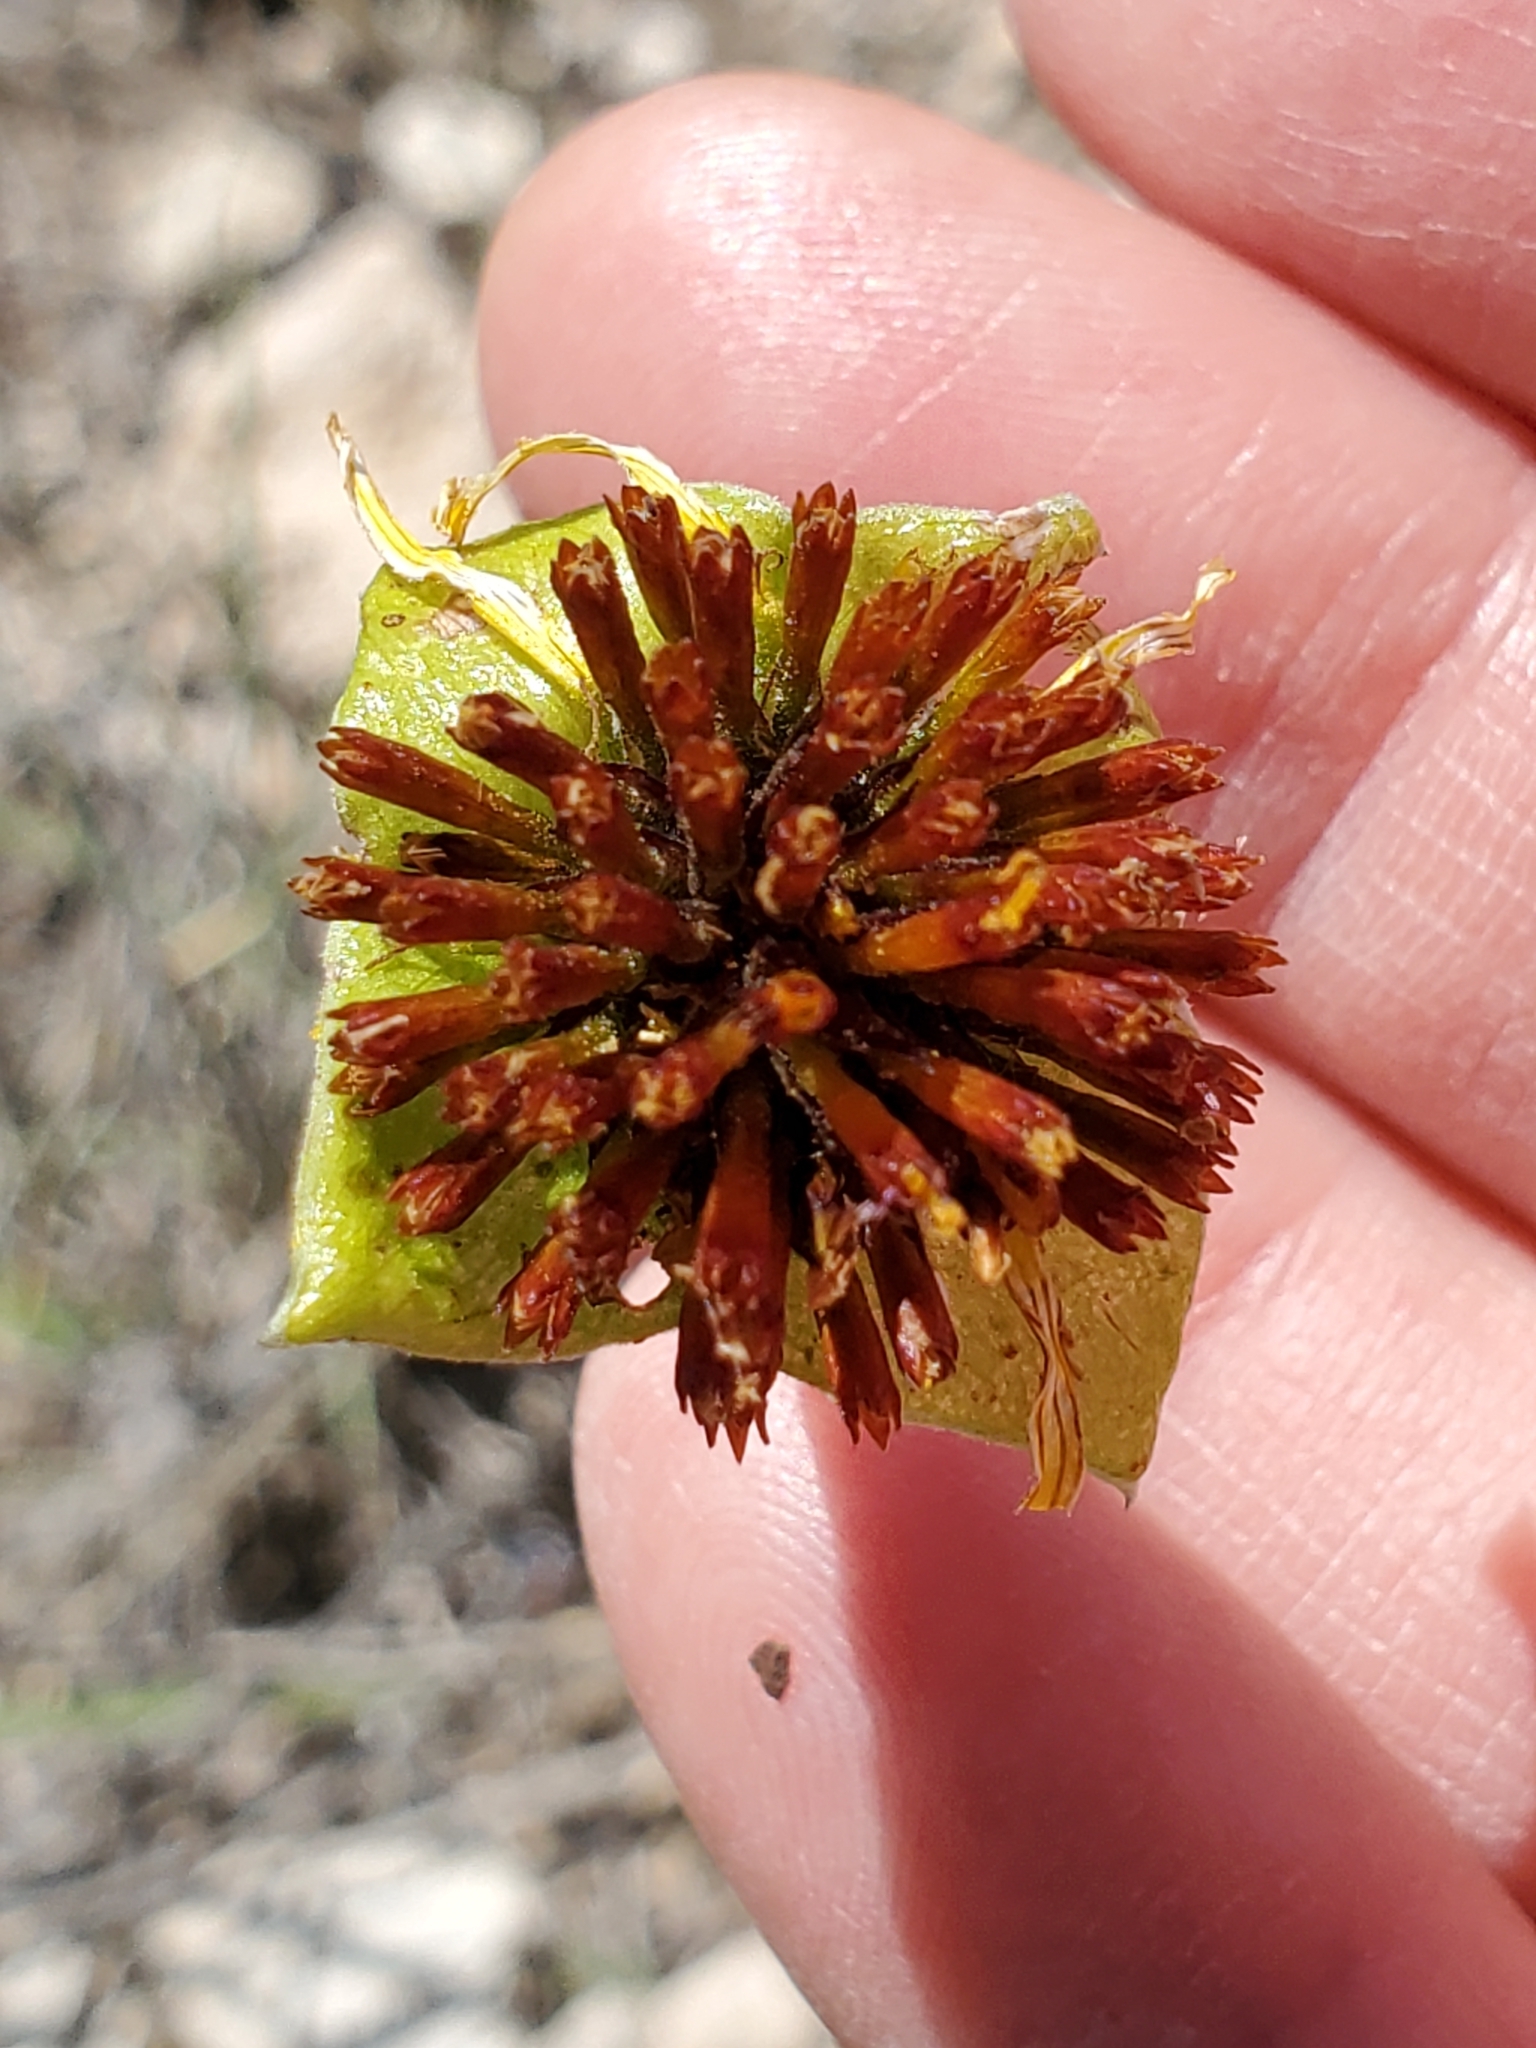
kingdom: Plantae
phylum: Tracheophyta
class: Magnoliopsida
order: Asterales
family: Asteraceae
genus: Tetragonotheca
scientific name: Tetragonotheca texana
